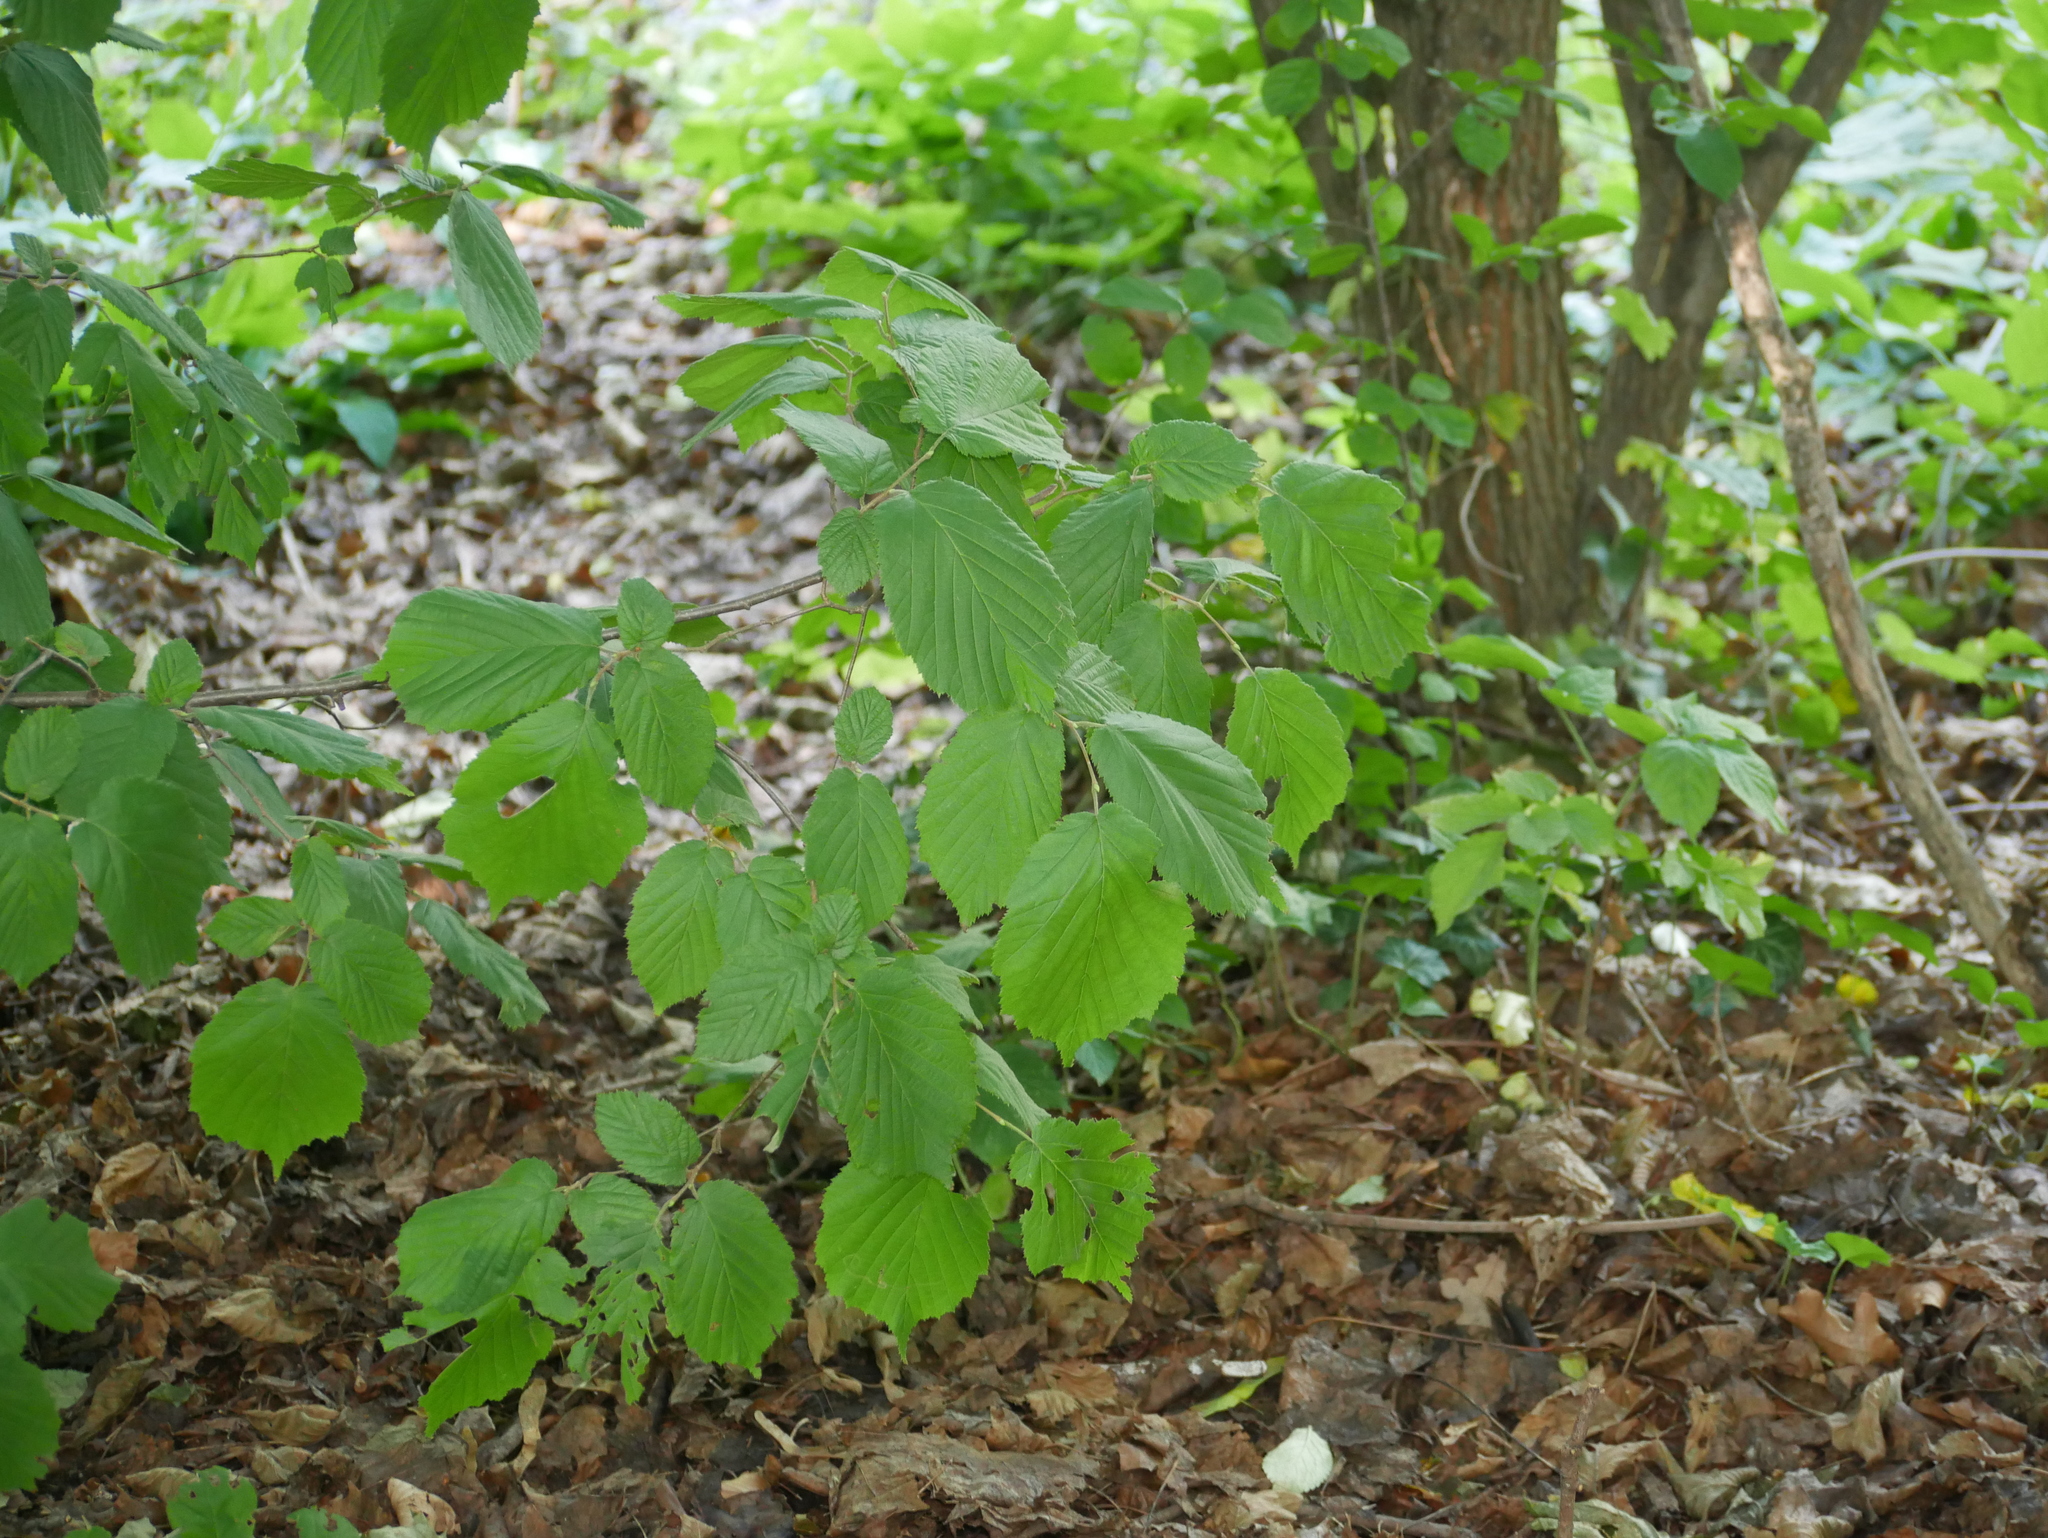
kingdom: Plantae
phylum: Tracheophyta
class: Magnoliopsida
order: Fagales
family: Betulaceae
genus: Corylus
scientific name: Corylus avellana
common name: European hazel
